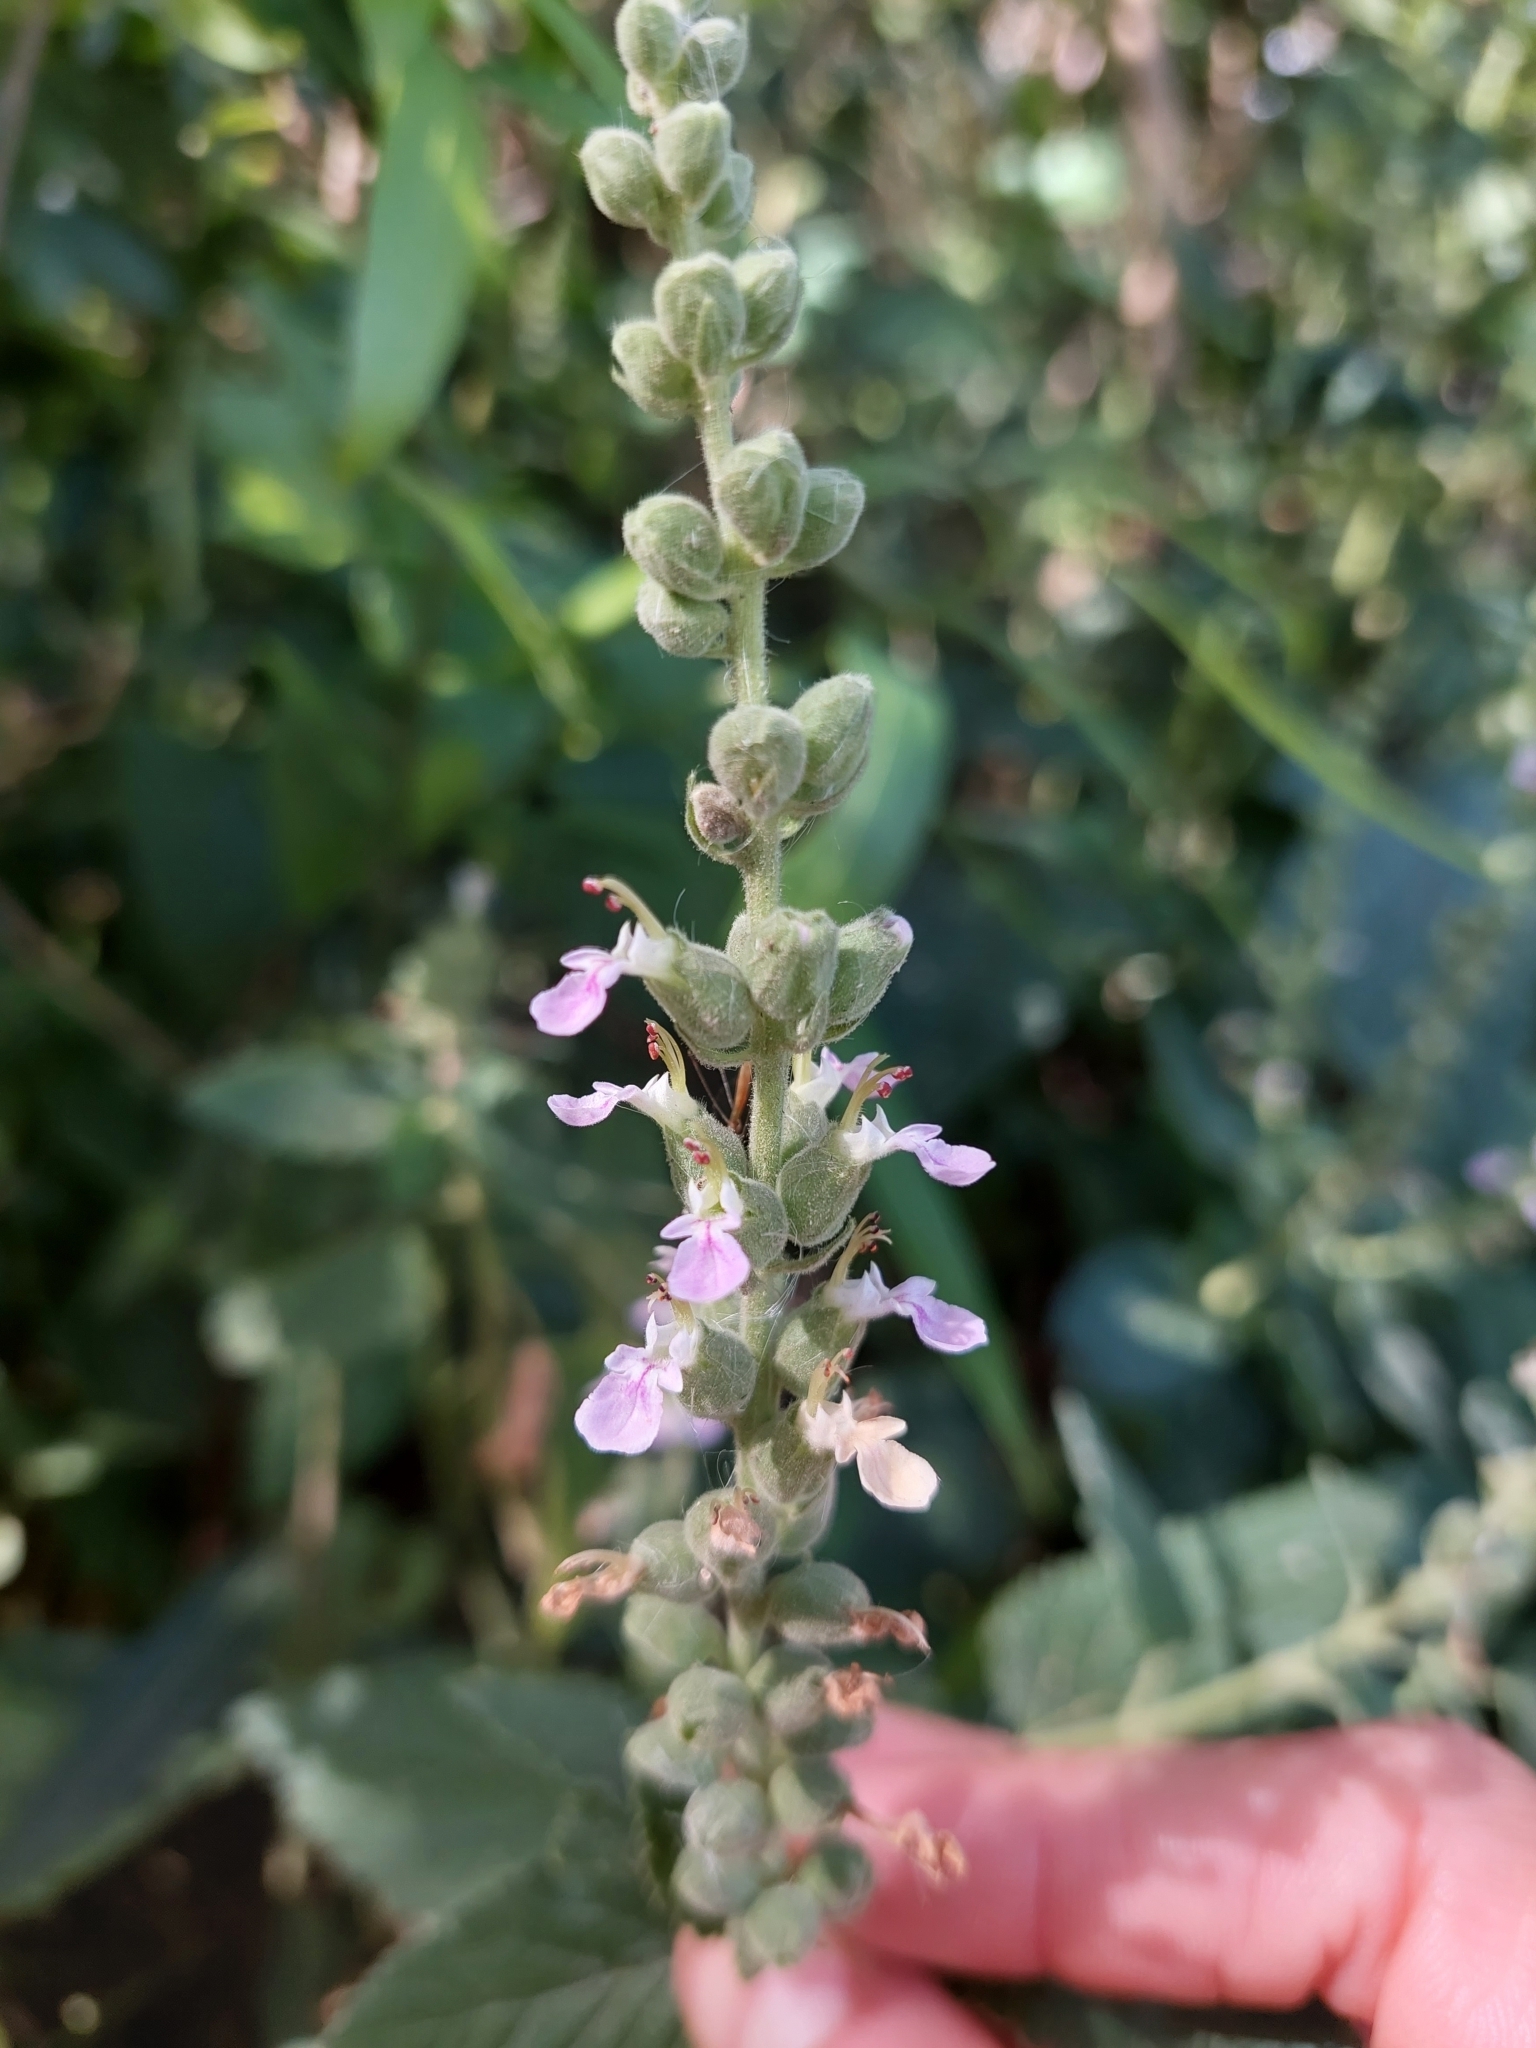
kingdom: Plantae
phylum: Tracheophyta
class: Magnoliopsida
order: Lamiales
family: Lamiaceae
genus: Teucrium
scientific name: Teucrium vesicarium
